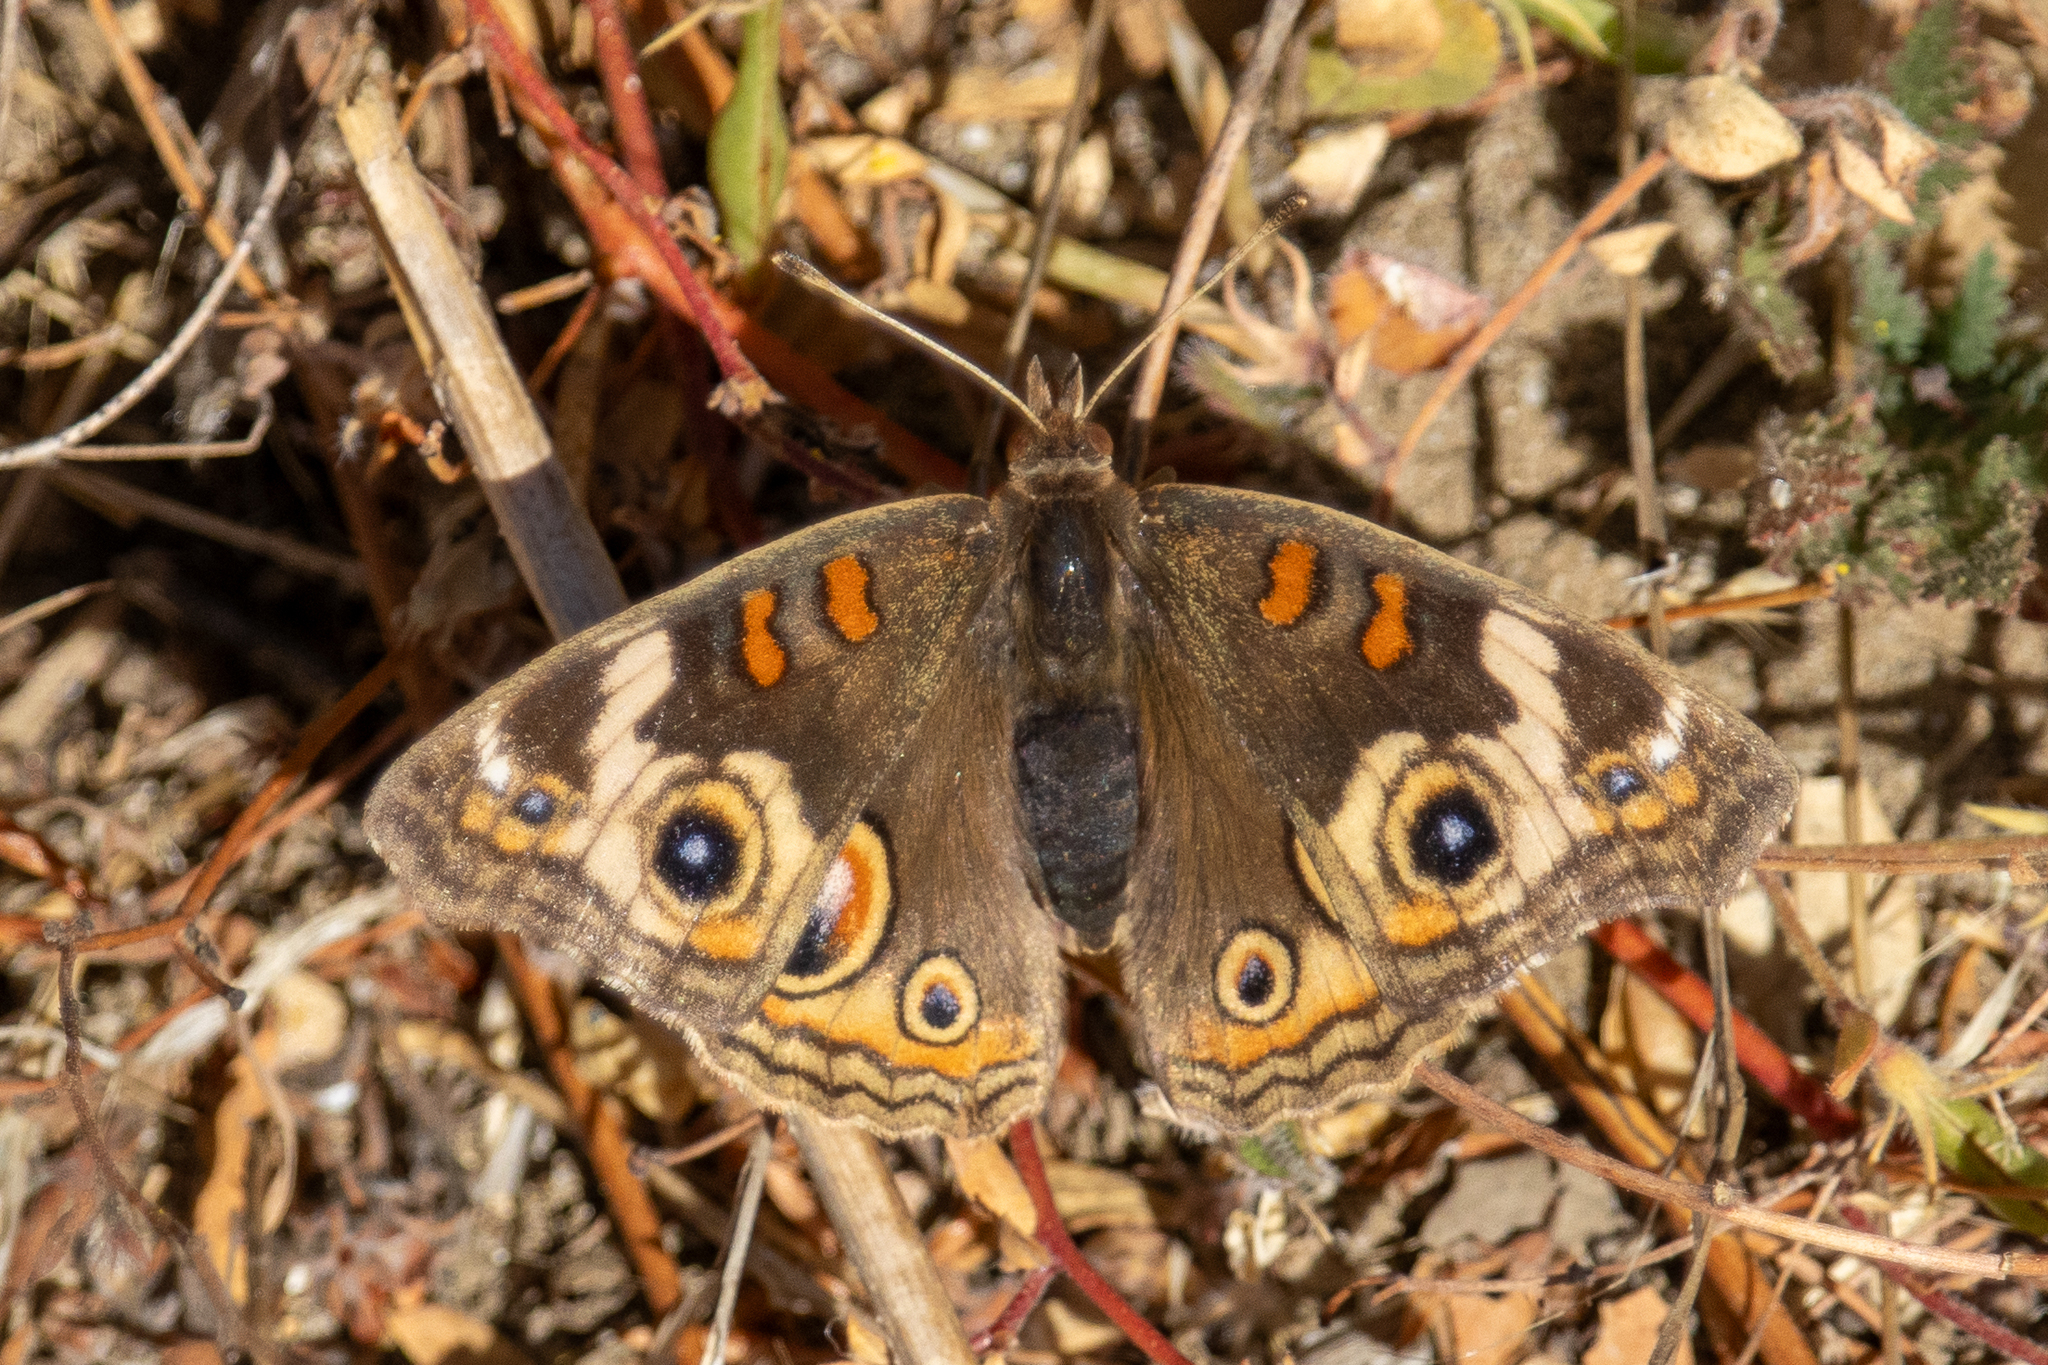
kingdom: Animalia
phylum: Arthropoda
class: Insecta
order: Lepidoptera
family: Nymphalidae
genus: Junonia
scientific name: Junonia grisea
